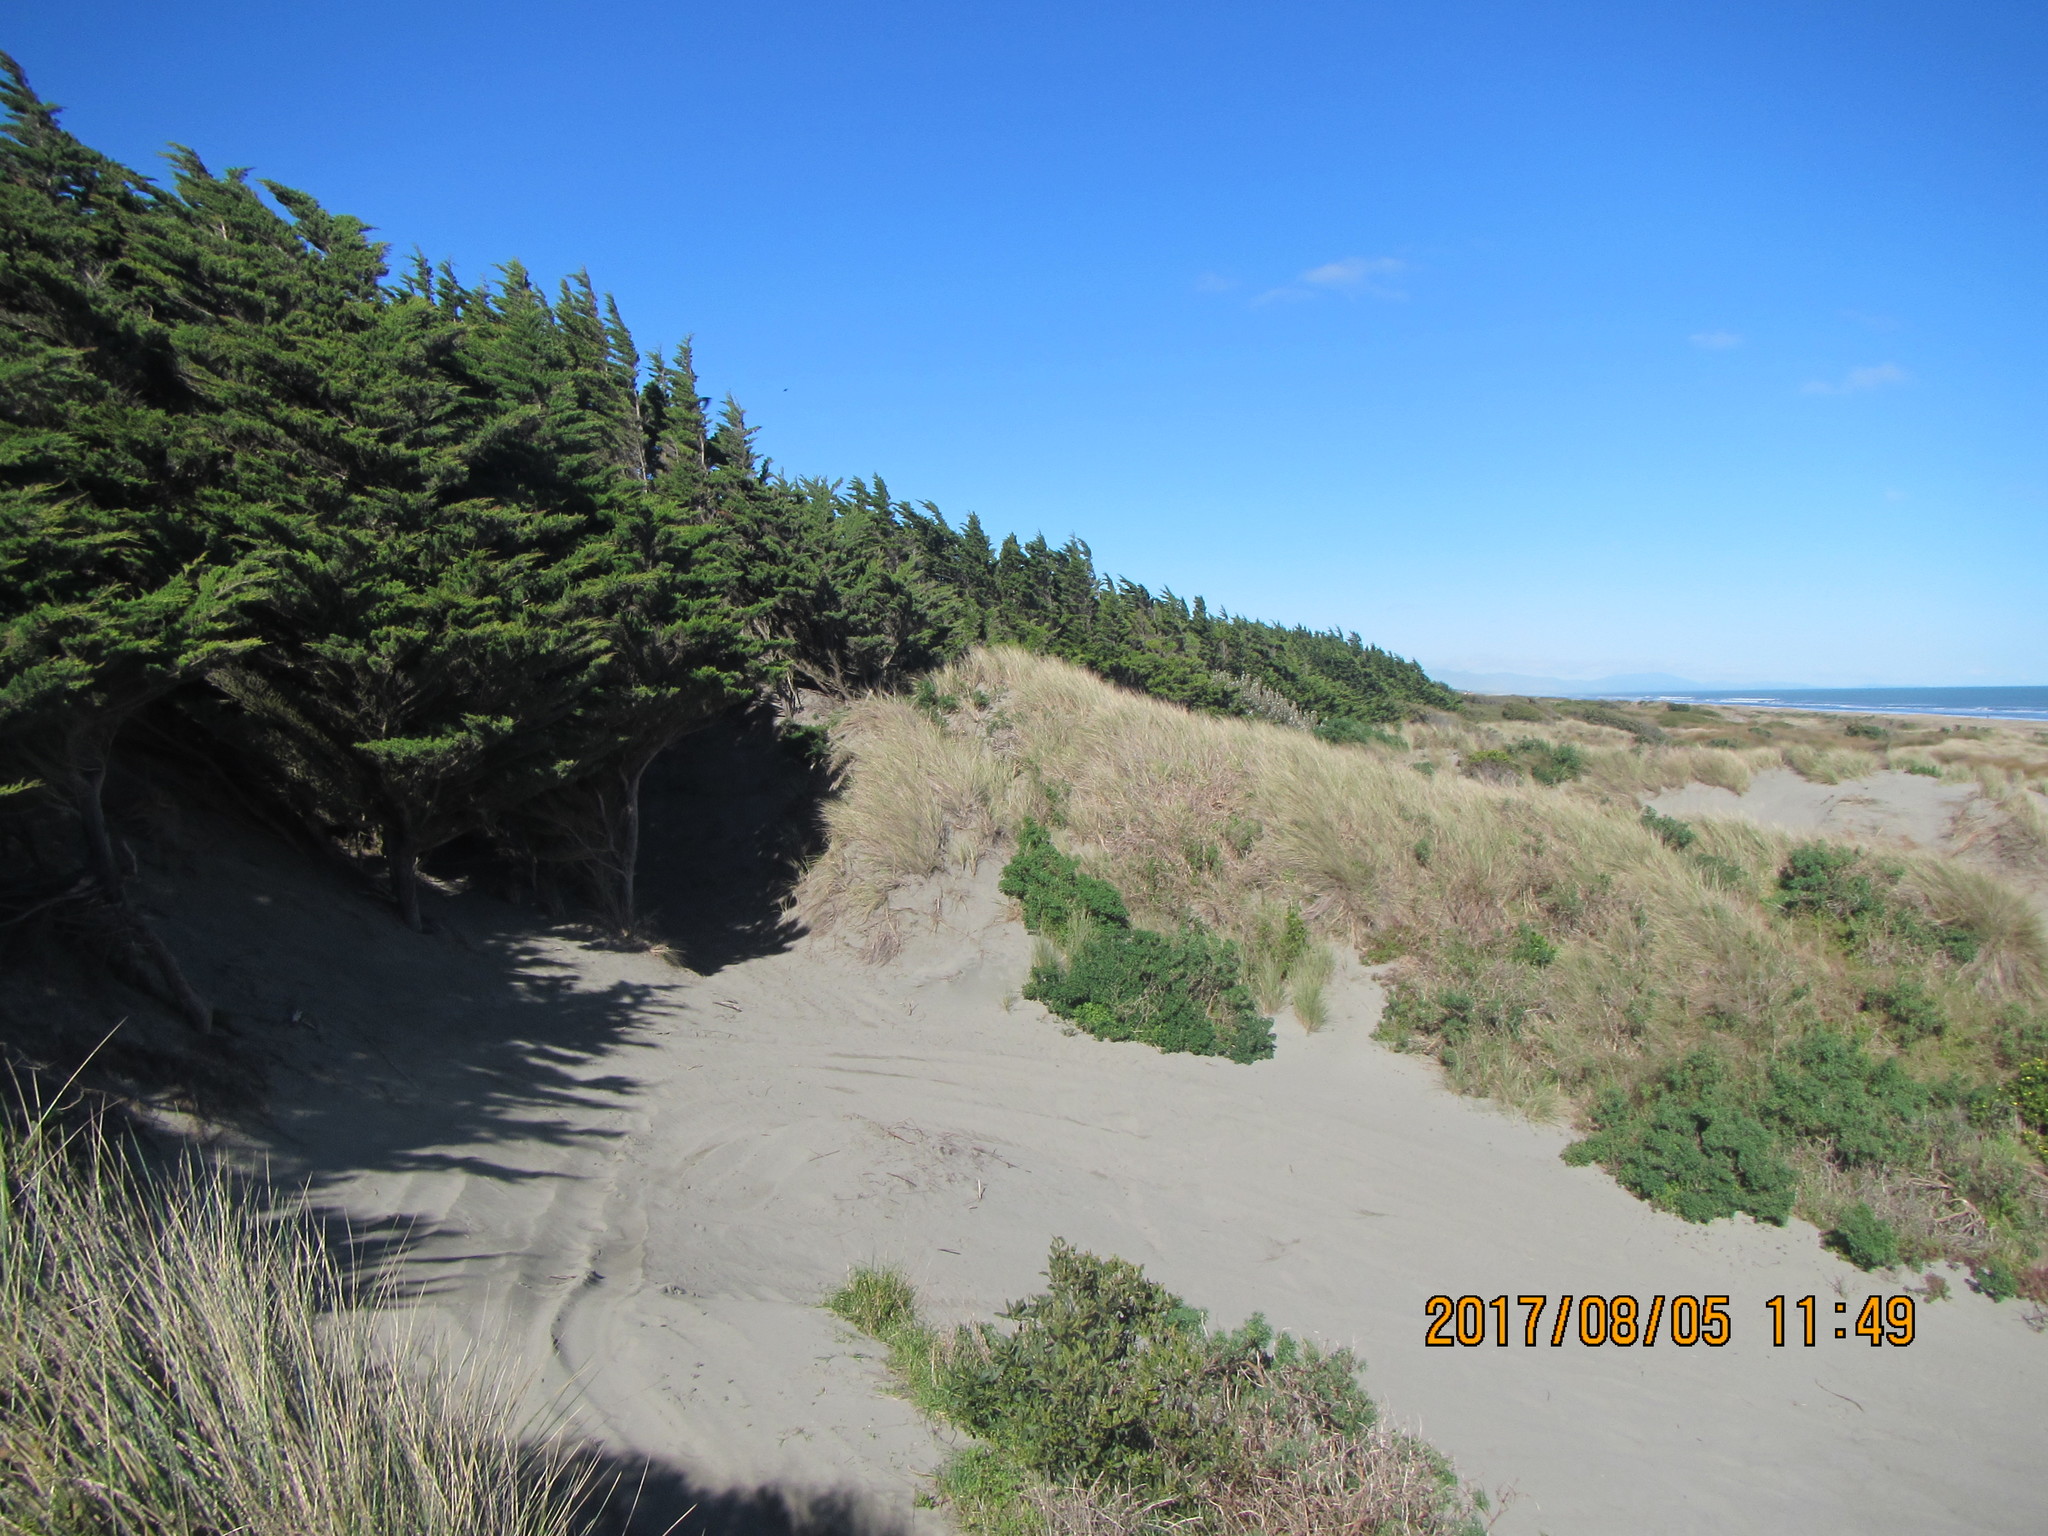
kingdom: Plantae
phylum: Tracheophyta
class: Pinopsida
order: Pinales
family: Cupressaceae
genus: Cupressus
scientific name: Cupressus macrocarpa
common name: Monterey cypress
